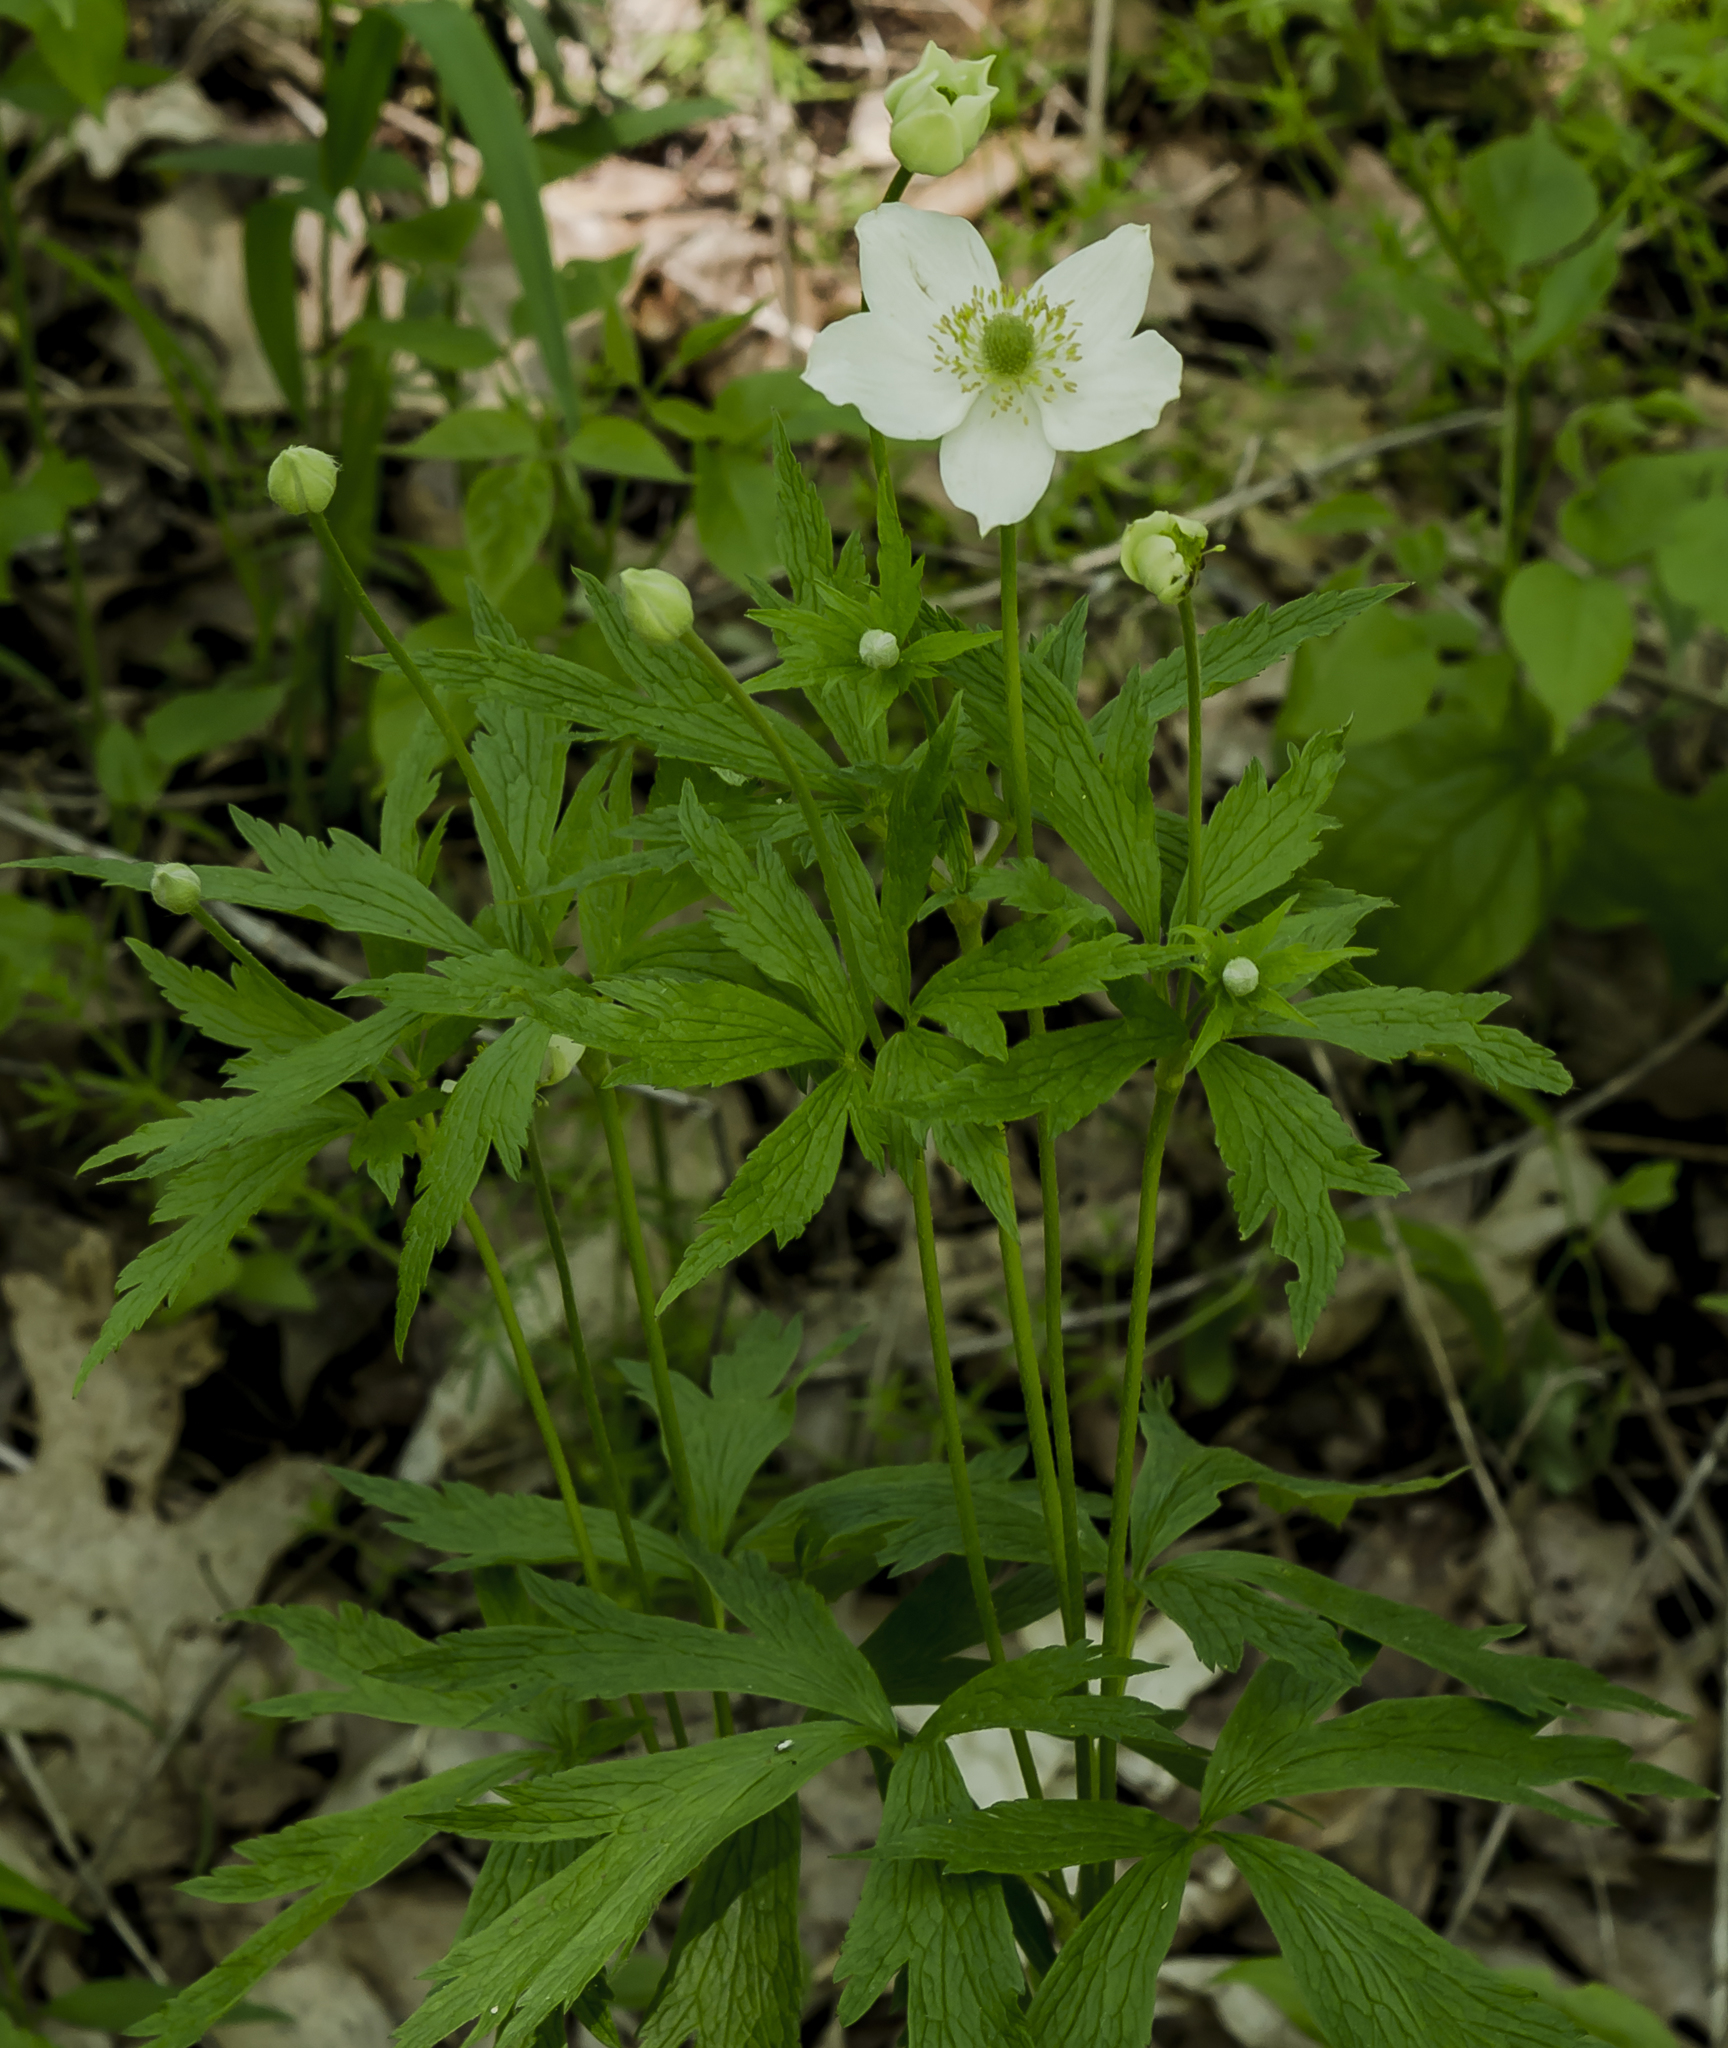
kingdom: Plantae
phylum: Tracheophyta
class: Magnoliopsida
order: Ranunculales
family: Ranunculaceae
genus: Anemone
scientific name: Anemone cylindrica
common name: Candle anemone
